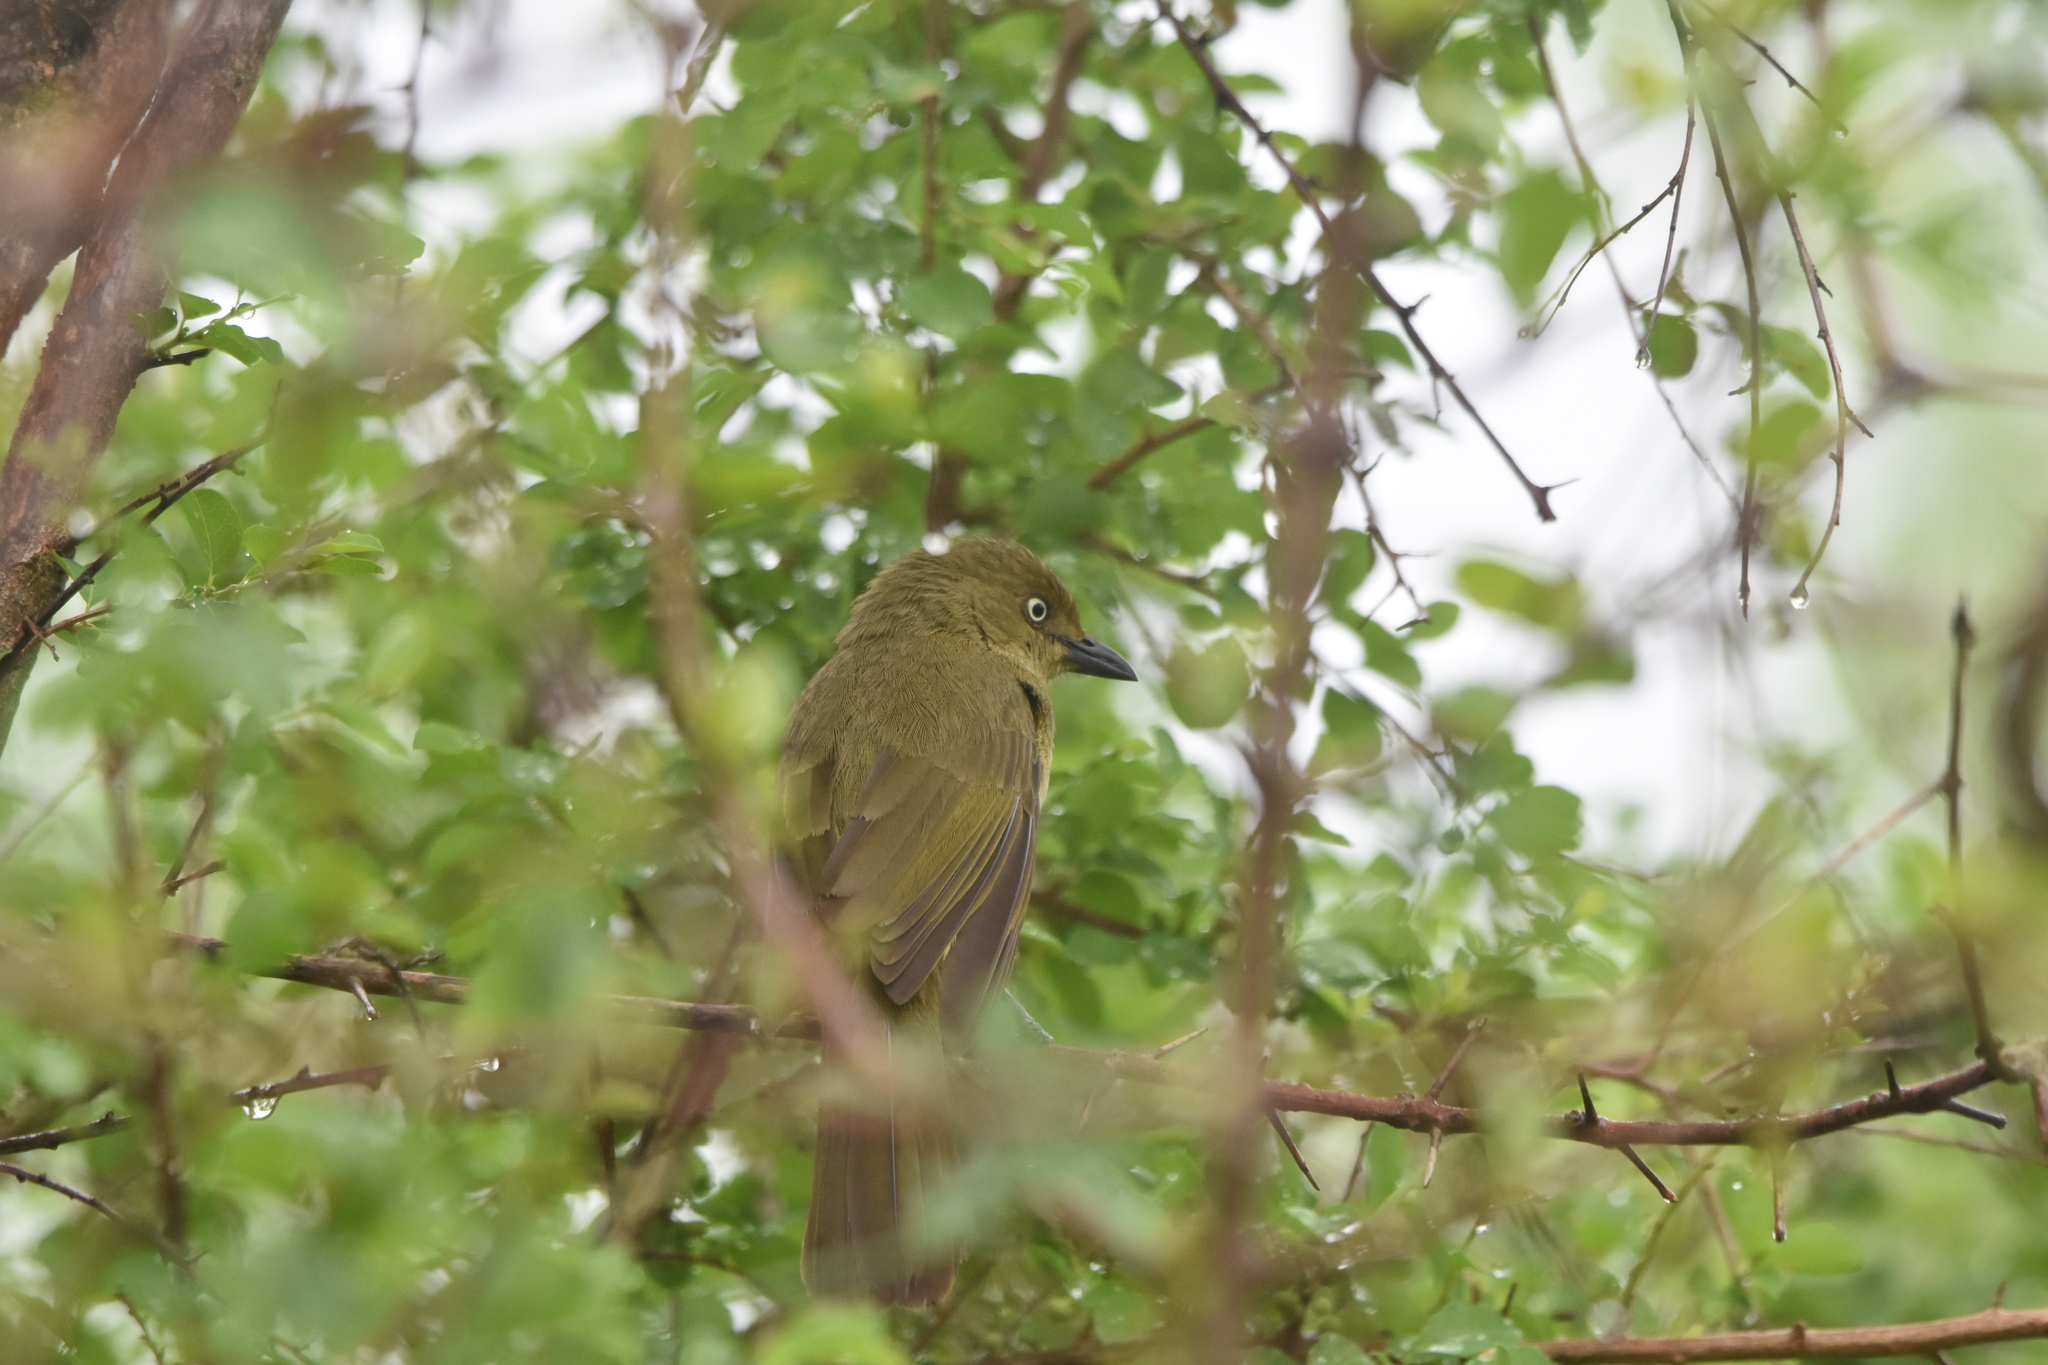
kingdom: Animalia
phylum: Chordata
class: Aves
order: Passeriformes
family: Pycnonotidae
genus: Andropadus
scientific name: Andropadus importunus
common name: Sombre greenbul
